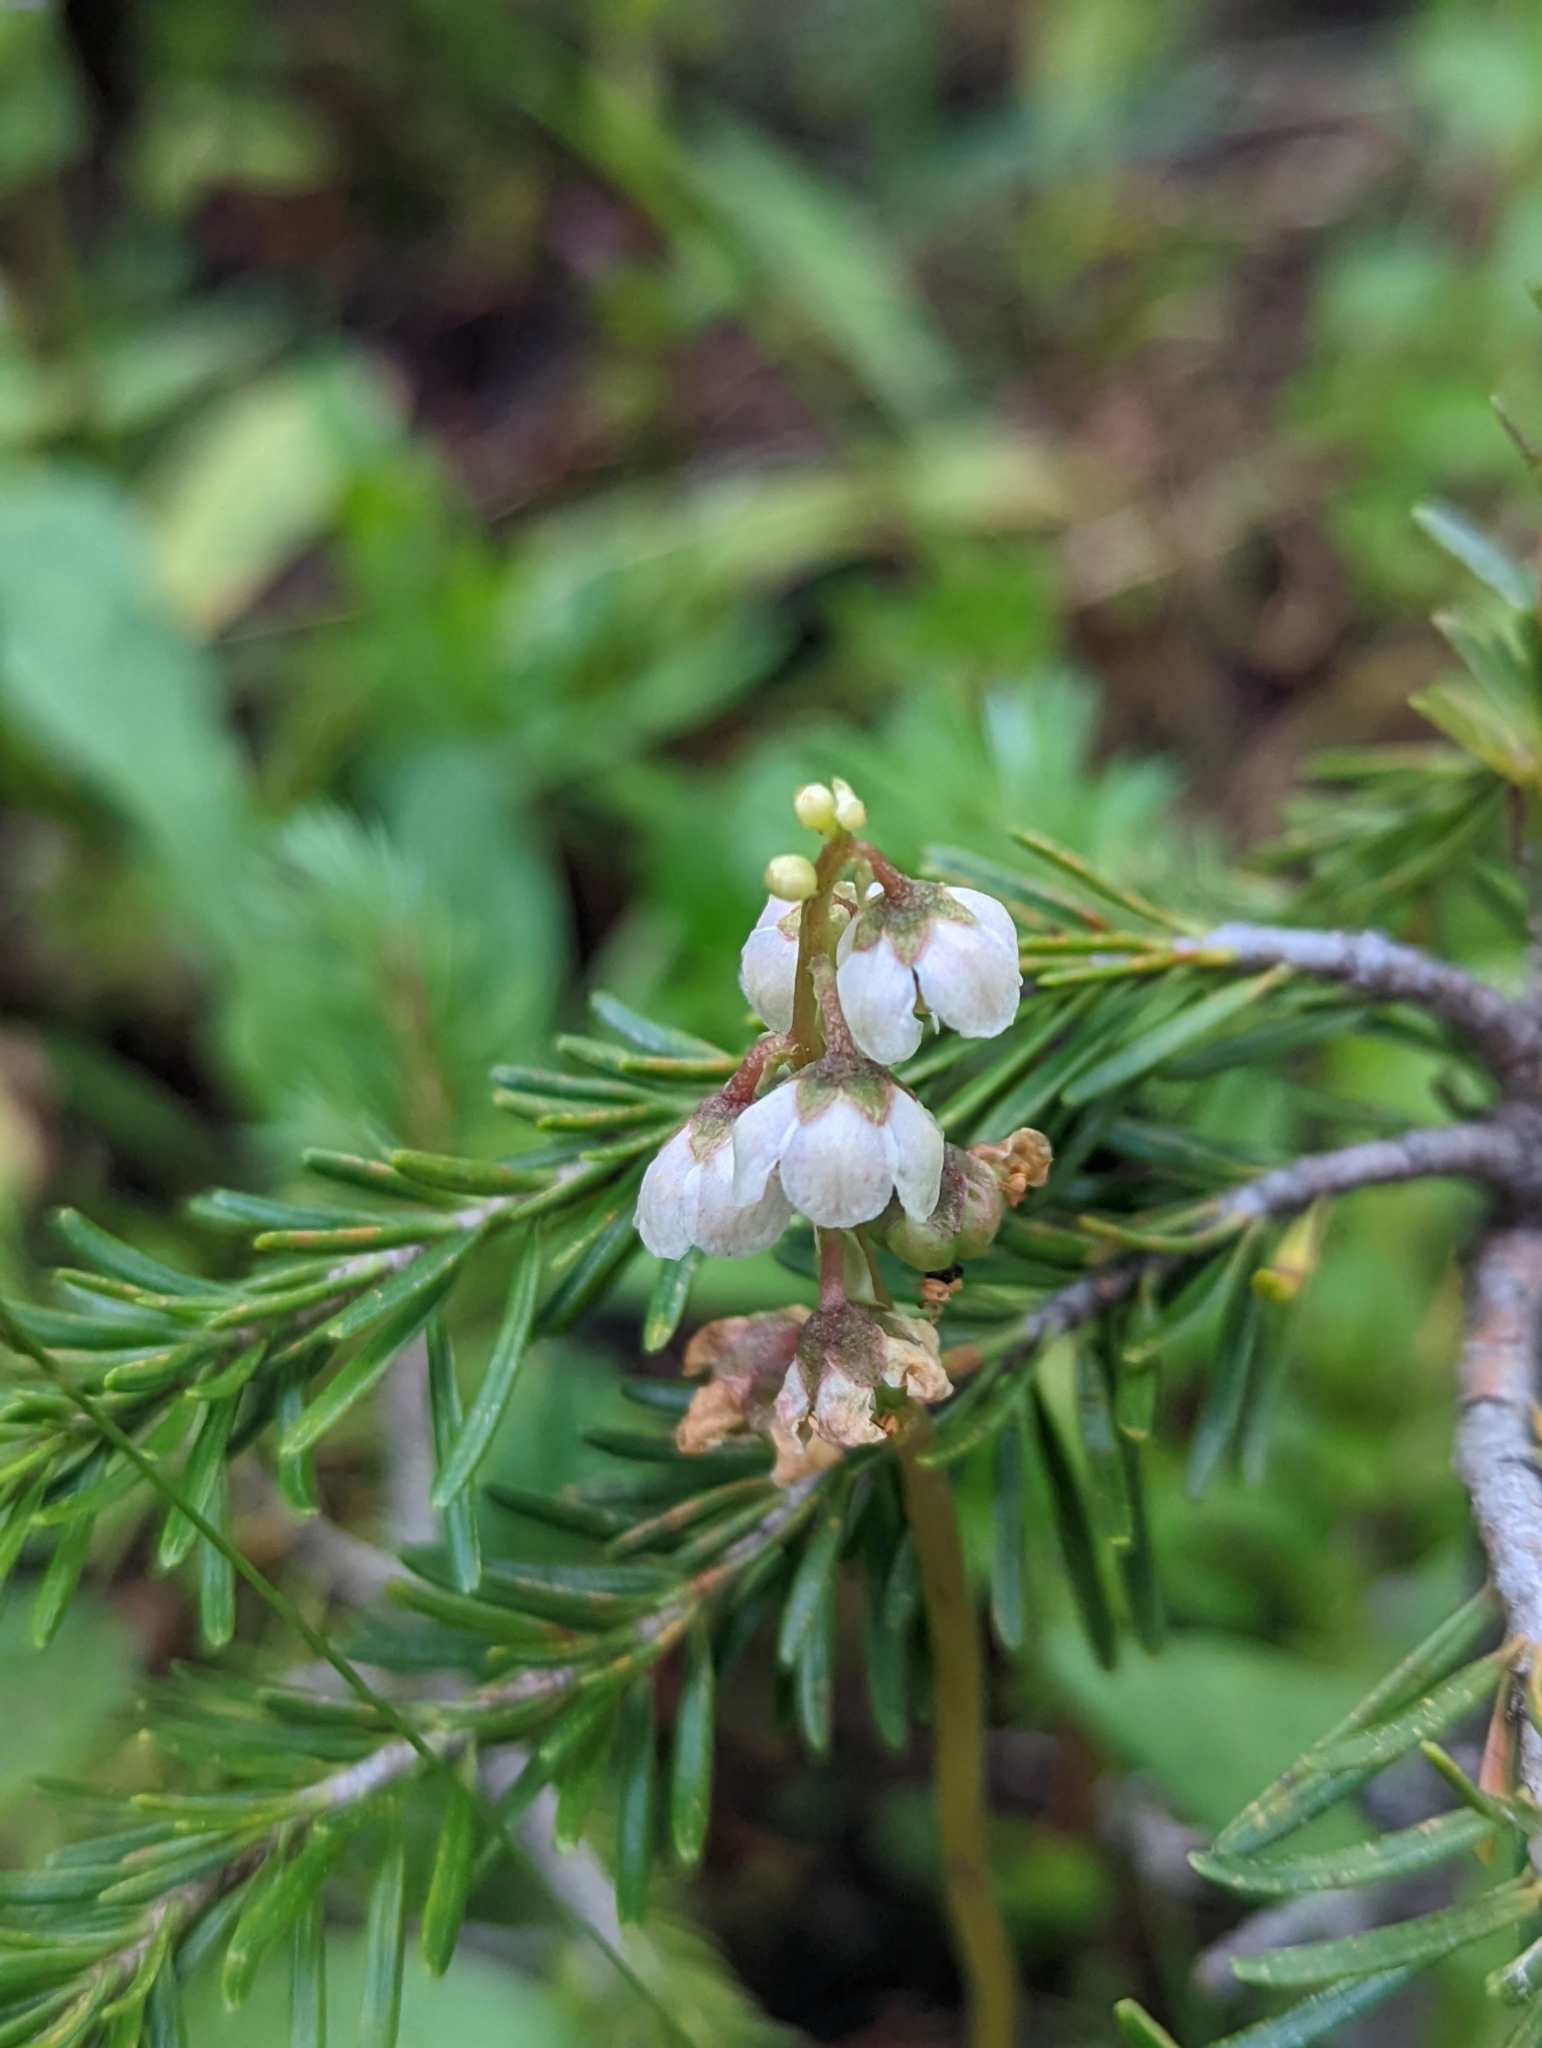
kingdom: Plantae
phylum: Tracheophyta
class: Magnoliopsida
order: Ericales
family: Ericaceae
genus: Pyrola
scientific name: Pyrola minor
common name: Common wintergreen
